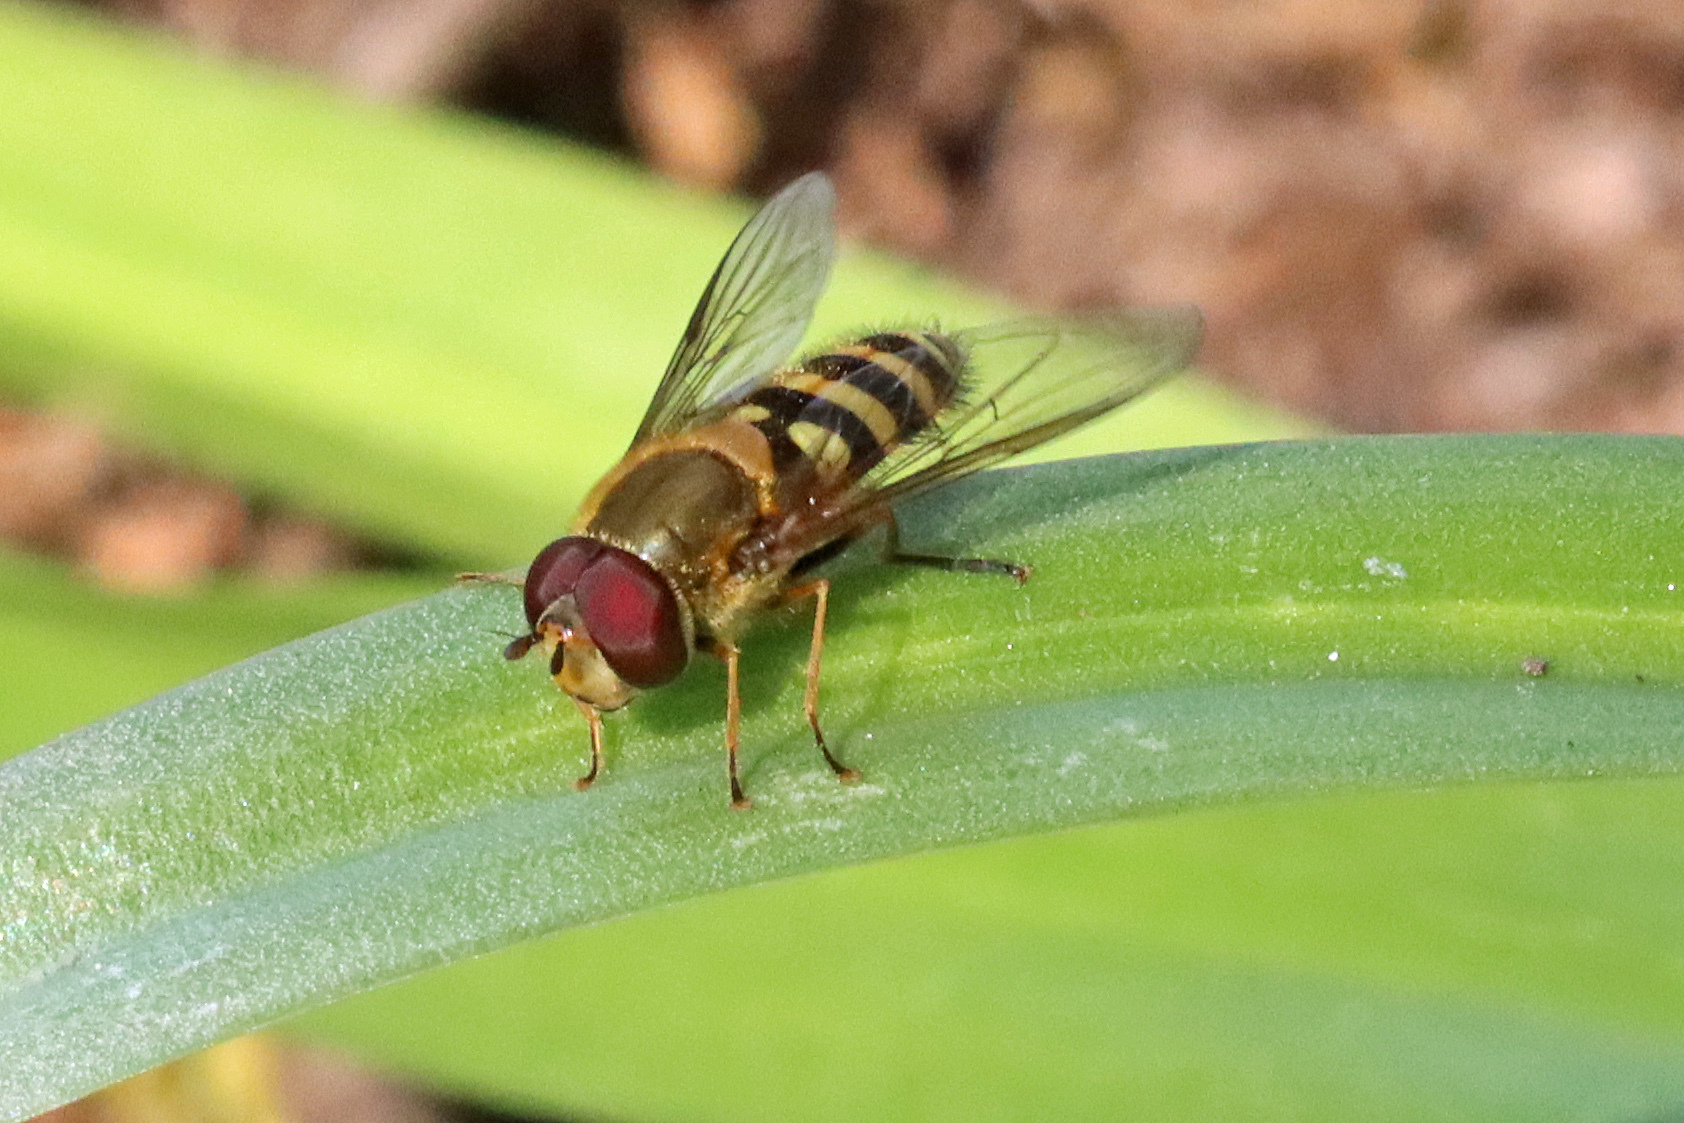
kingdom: Animalia
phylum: Arthropoda
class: Insecta
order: Diptera
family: Syrphidae
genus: Syrphus
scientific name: Syrphus
